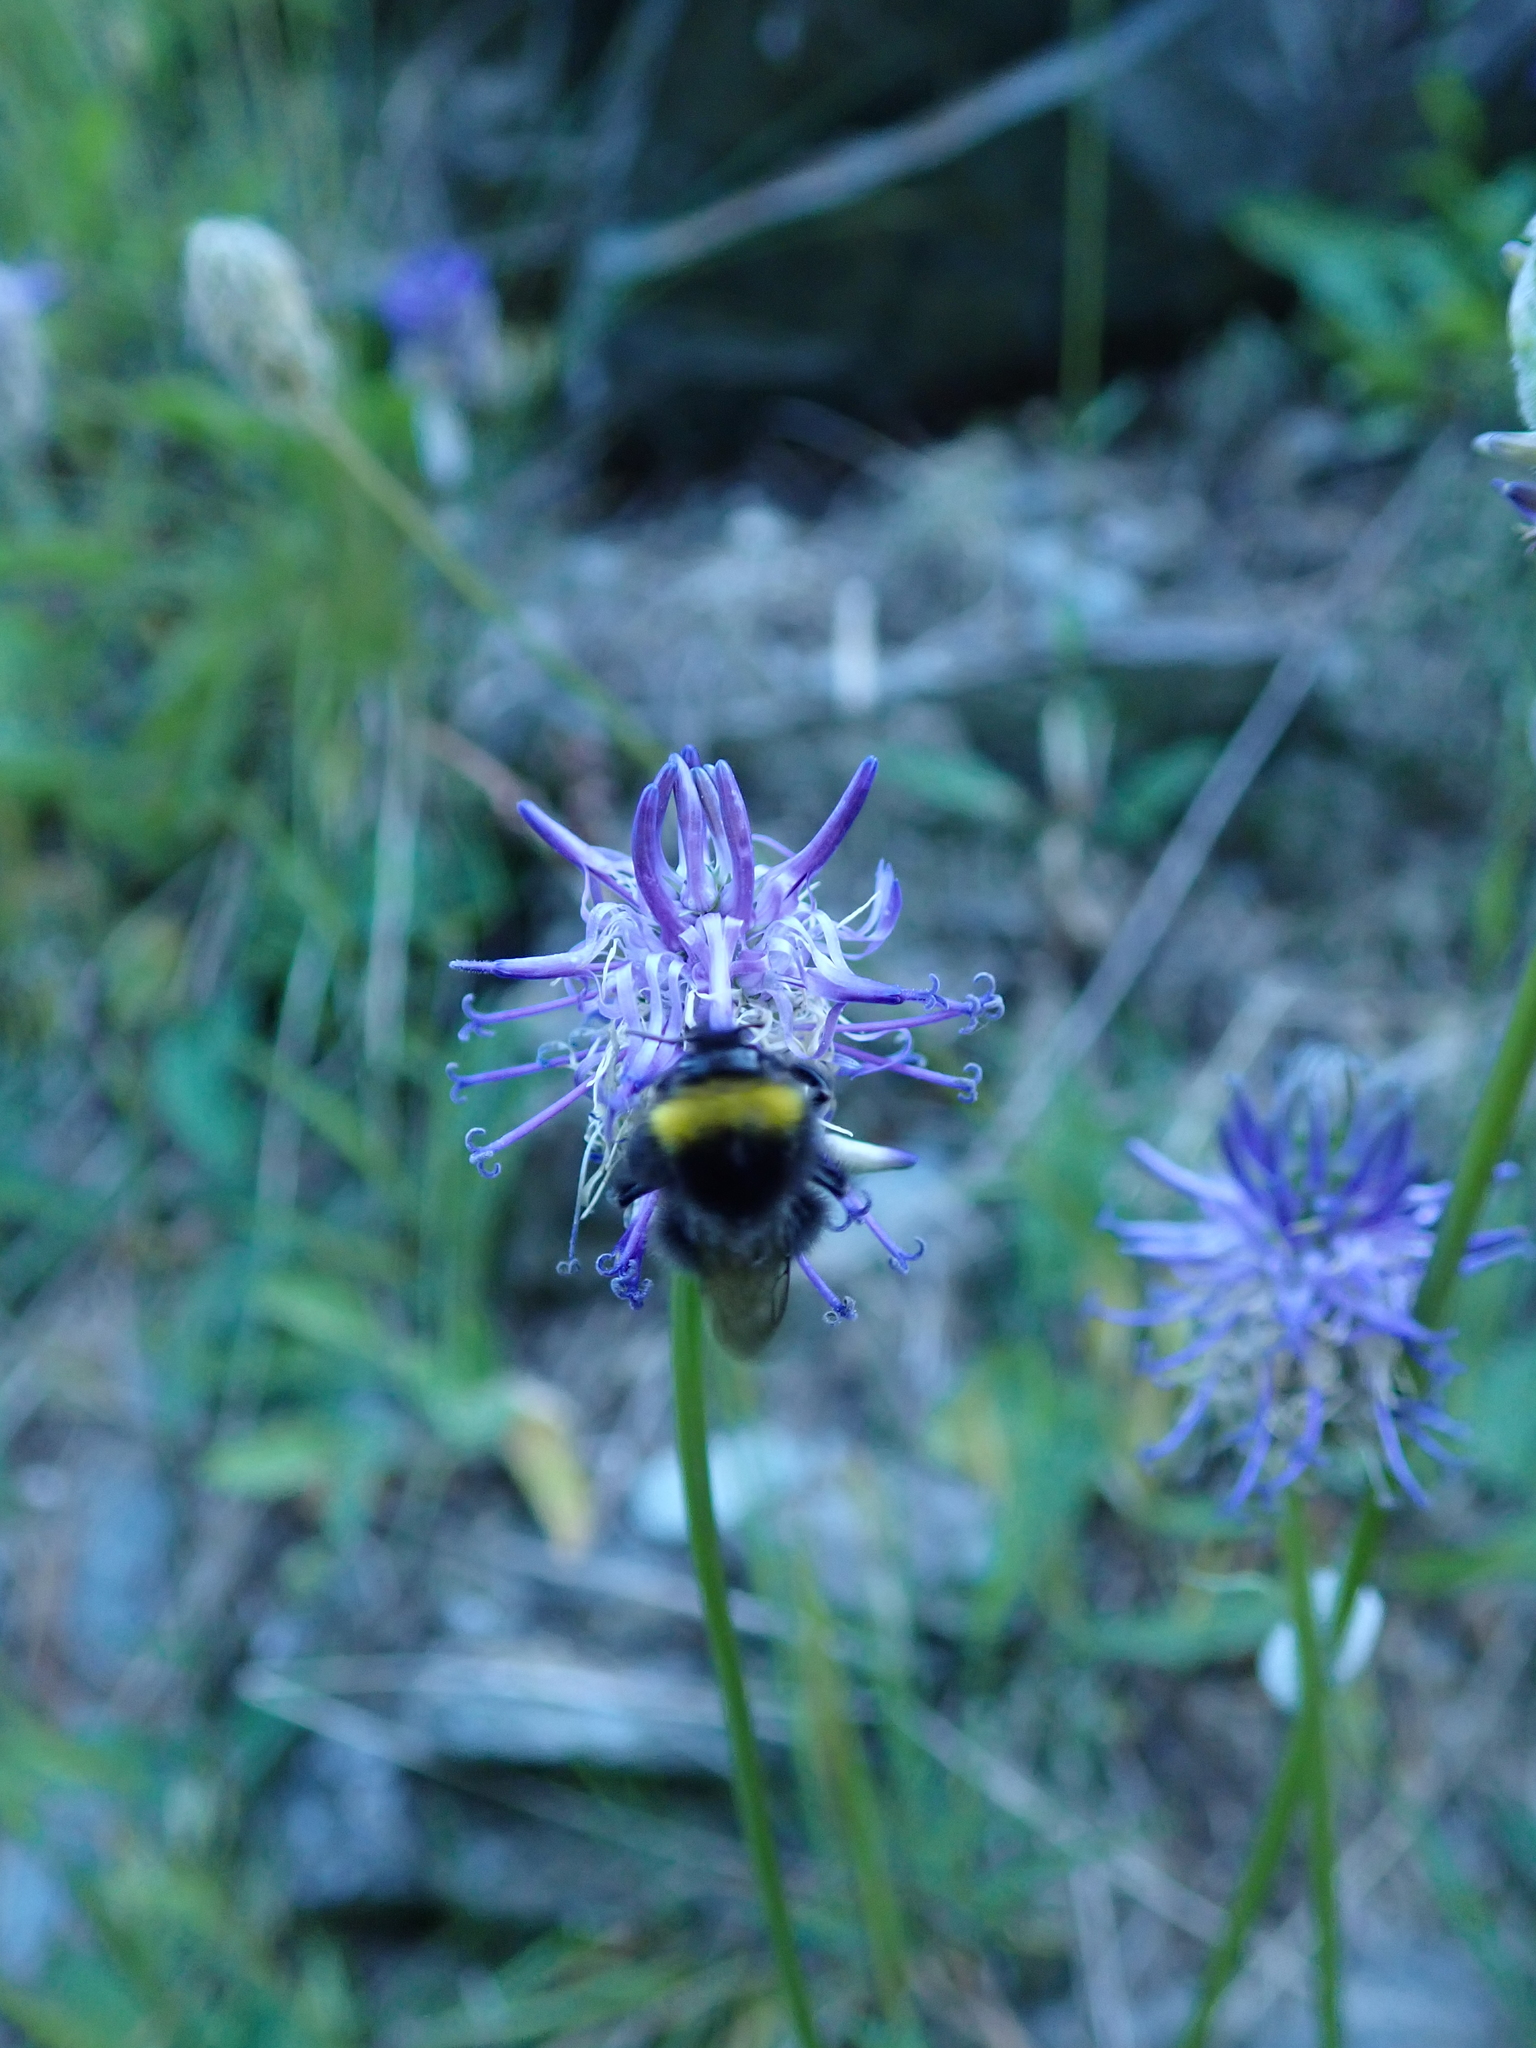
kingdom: Animalia
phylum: Arthropoda
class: Insecta
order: Hymenoptera
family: Apidae
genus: Bombus
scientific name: Bombus pratorum
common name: Early humble-bee
